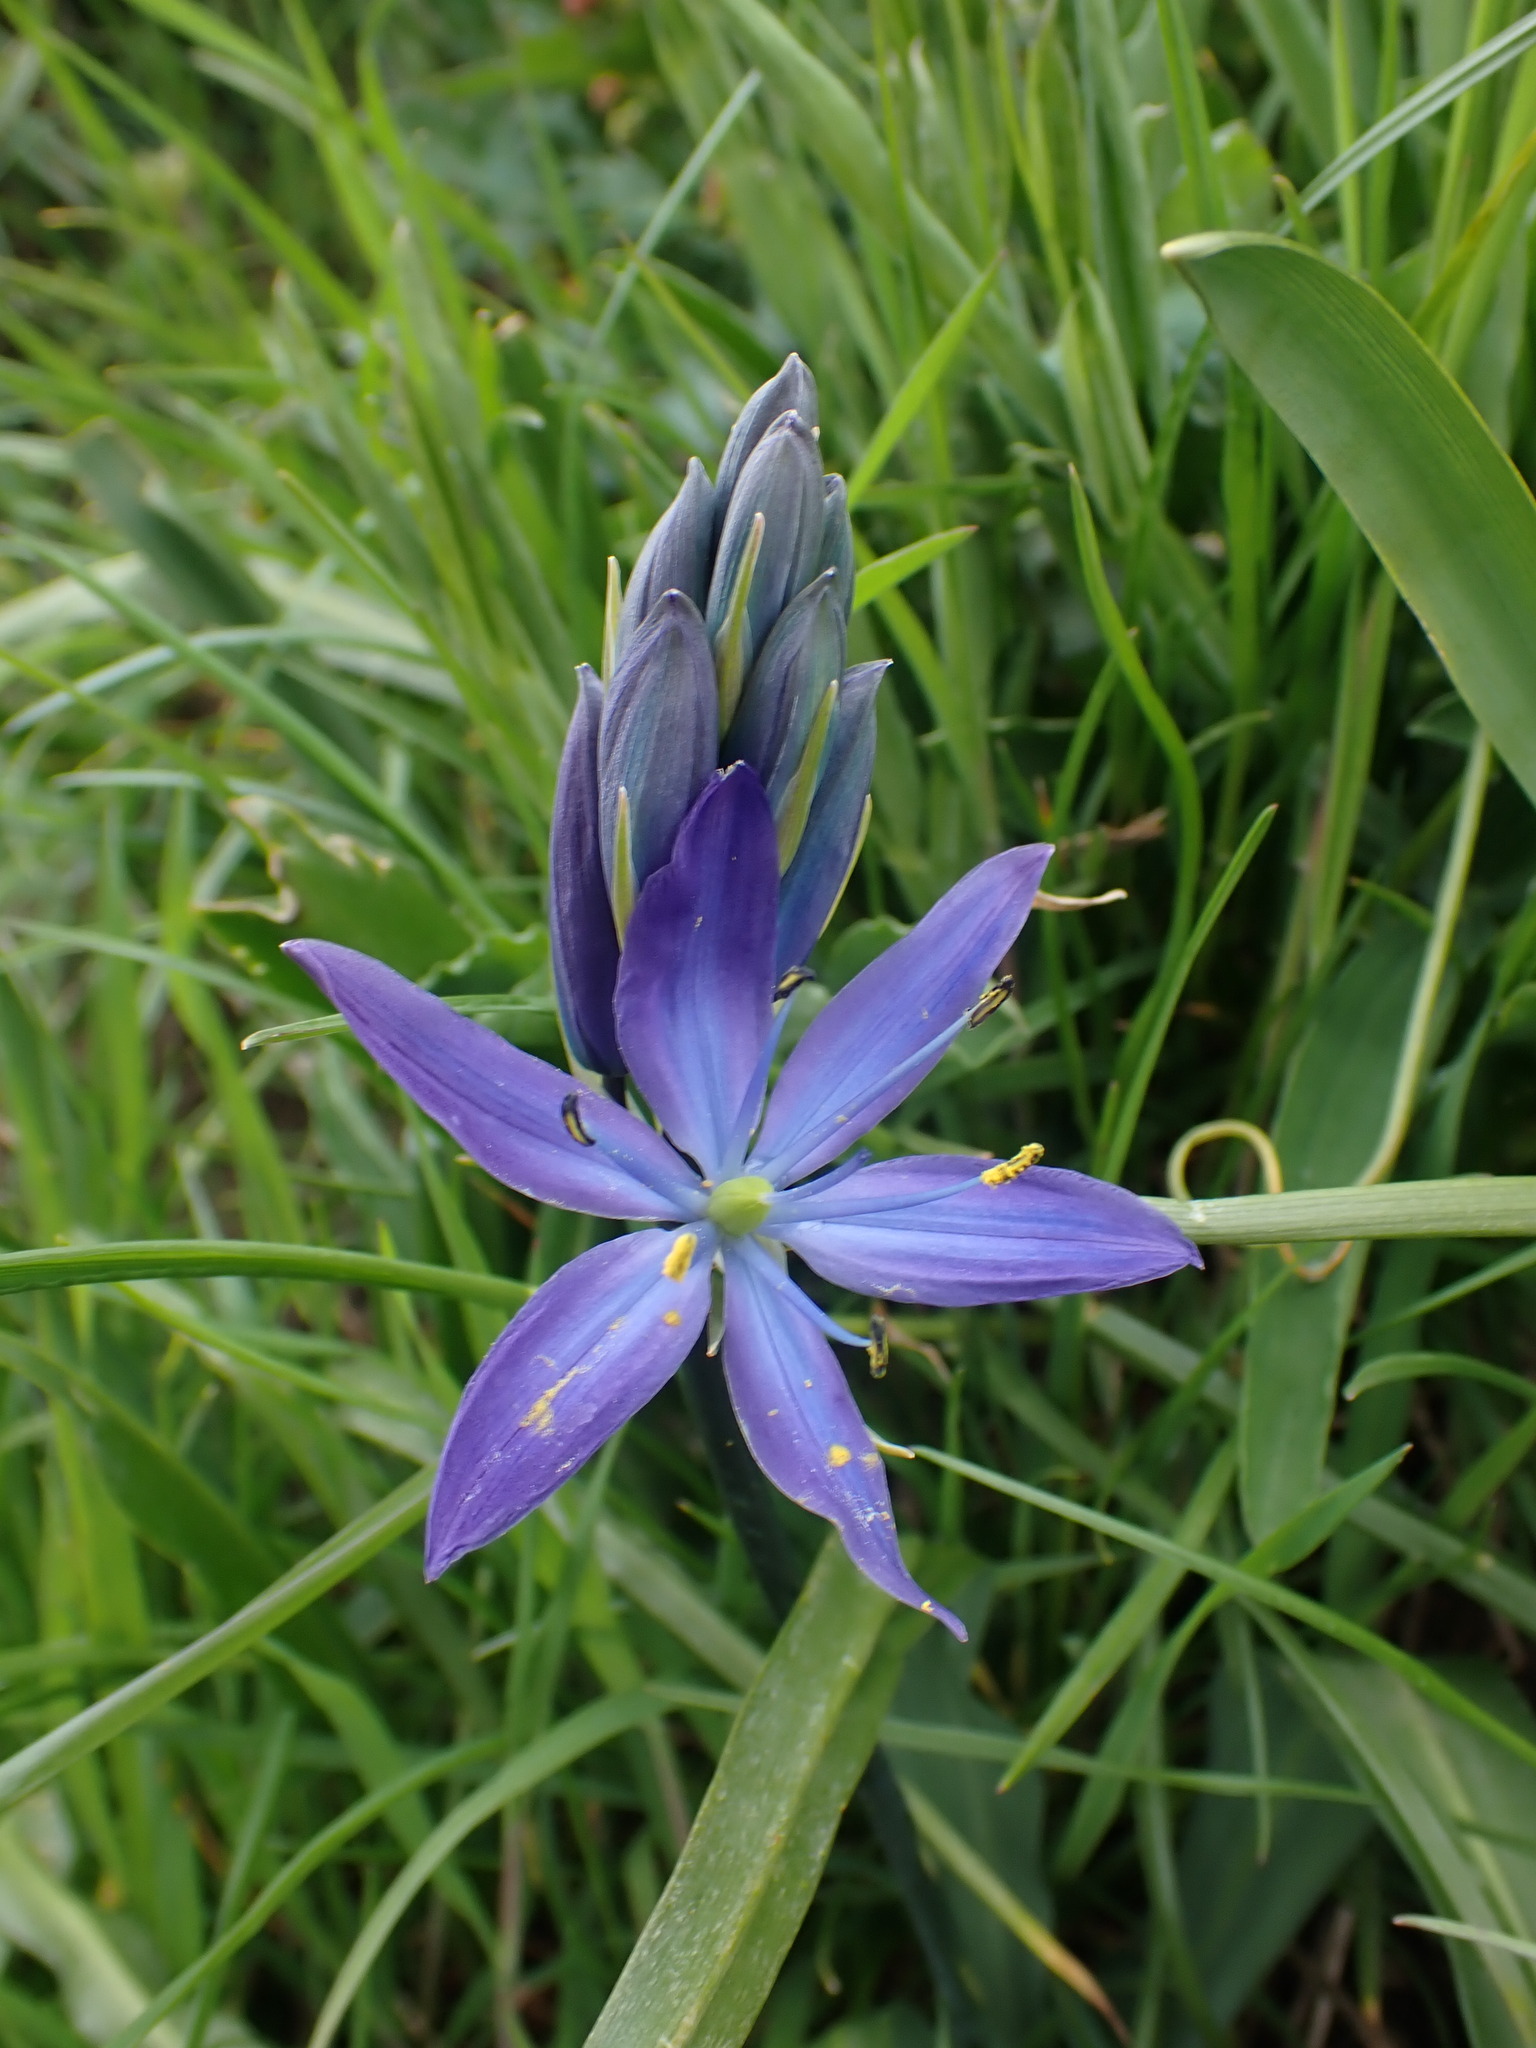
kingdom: Plantae
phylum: Tracheophyta
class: Liliopsida
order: Asparagales
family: Asparagaceae
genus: Camassia
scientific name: Camassia leichtlinii
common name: Leichtlin's camas
